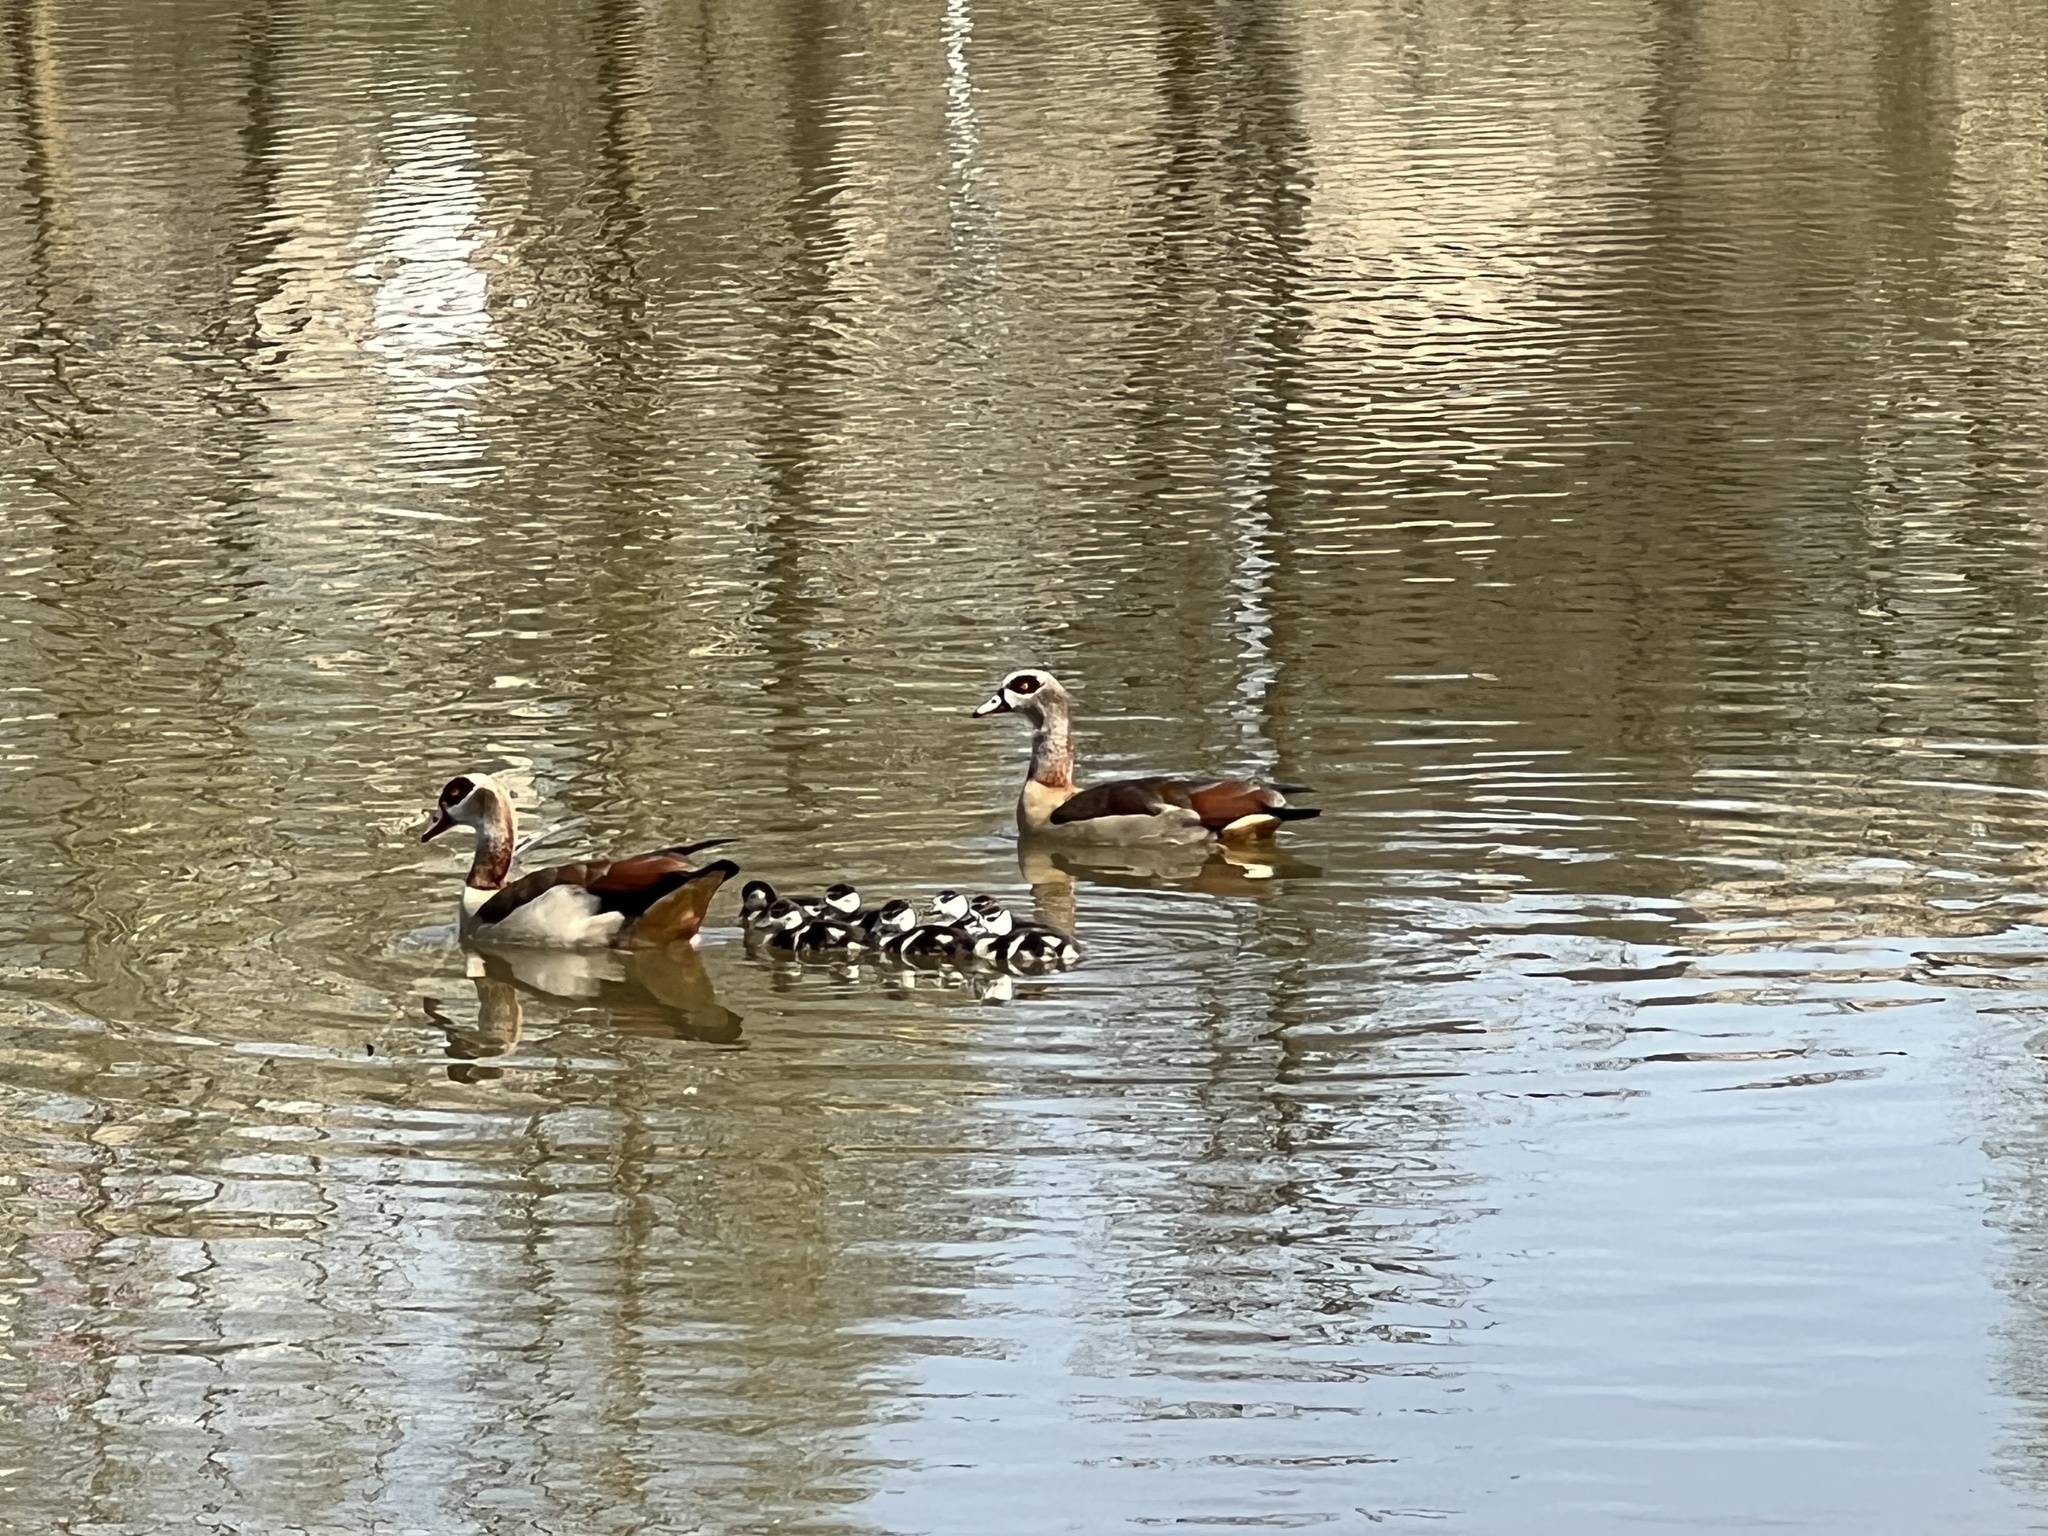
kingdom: Animalia
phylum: Chordata
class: Aves
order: Anseriformes
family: Anatidae
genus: Alopochen
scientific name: Alopochen aegyptiaca
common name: Egyptian goose
